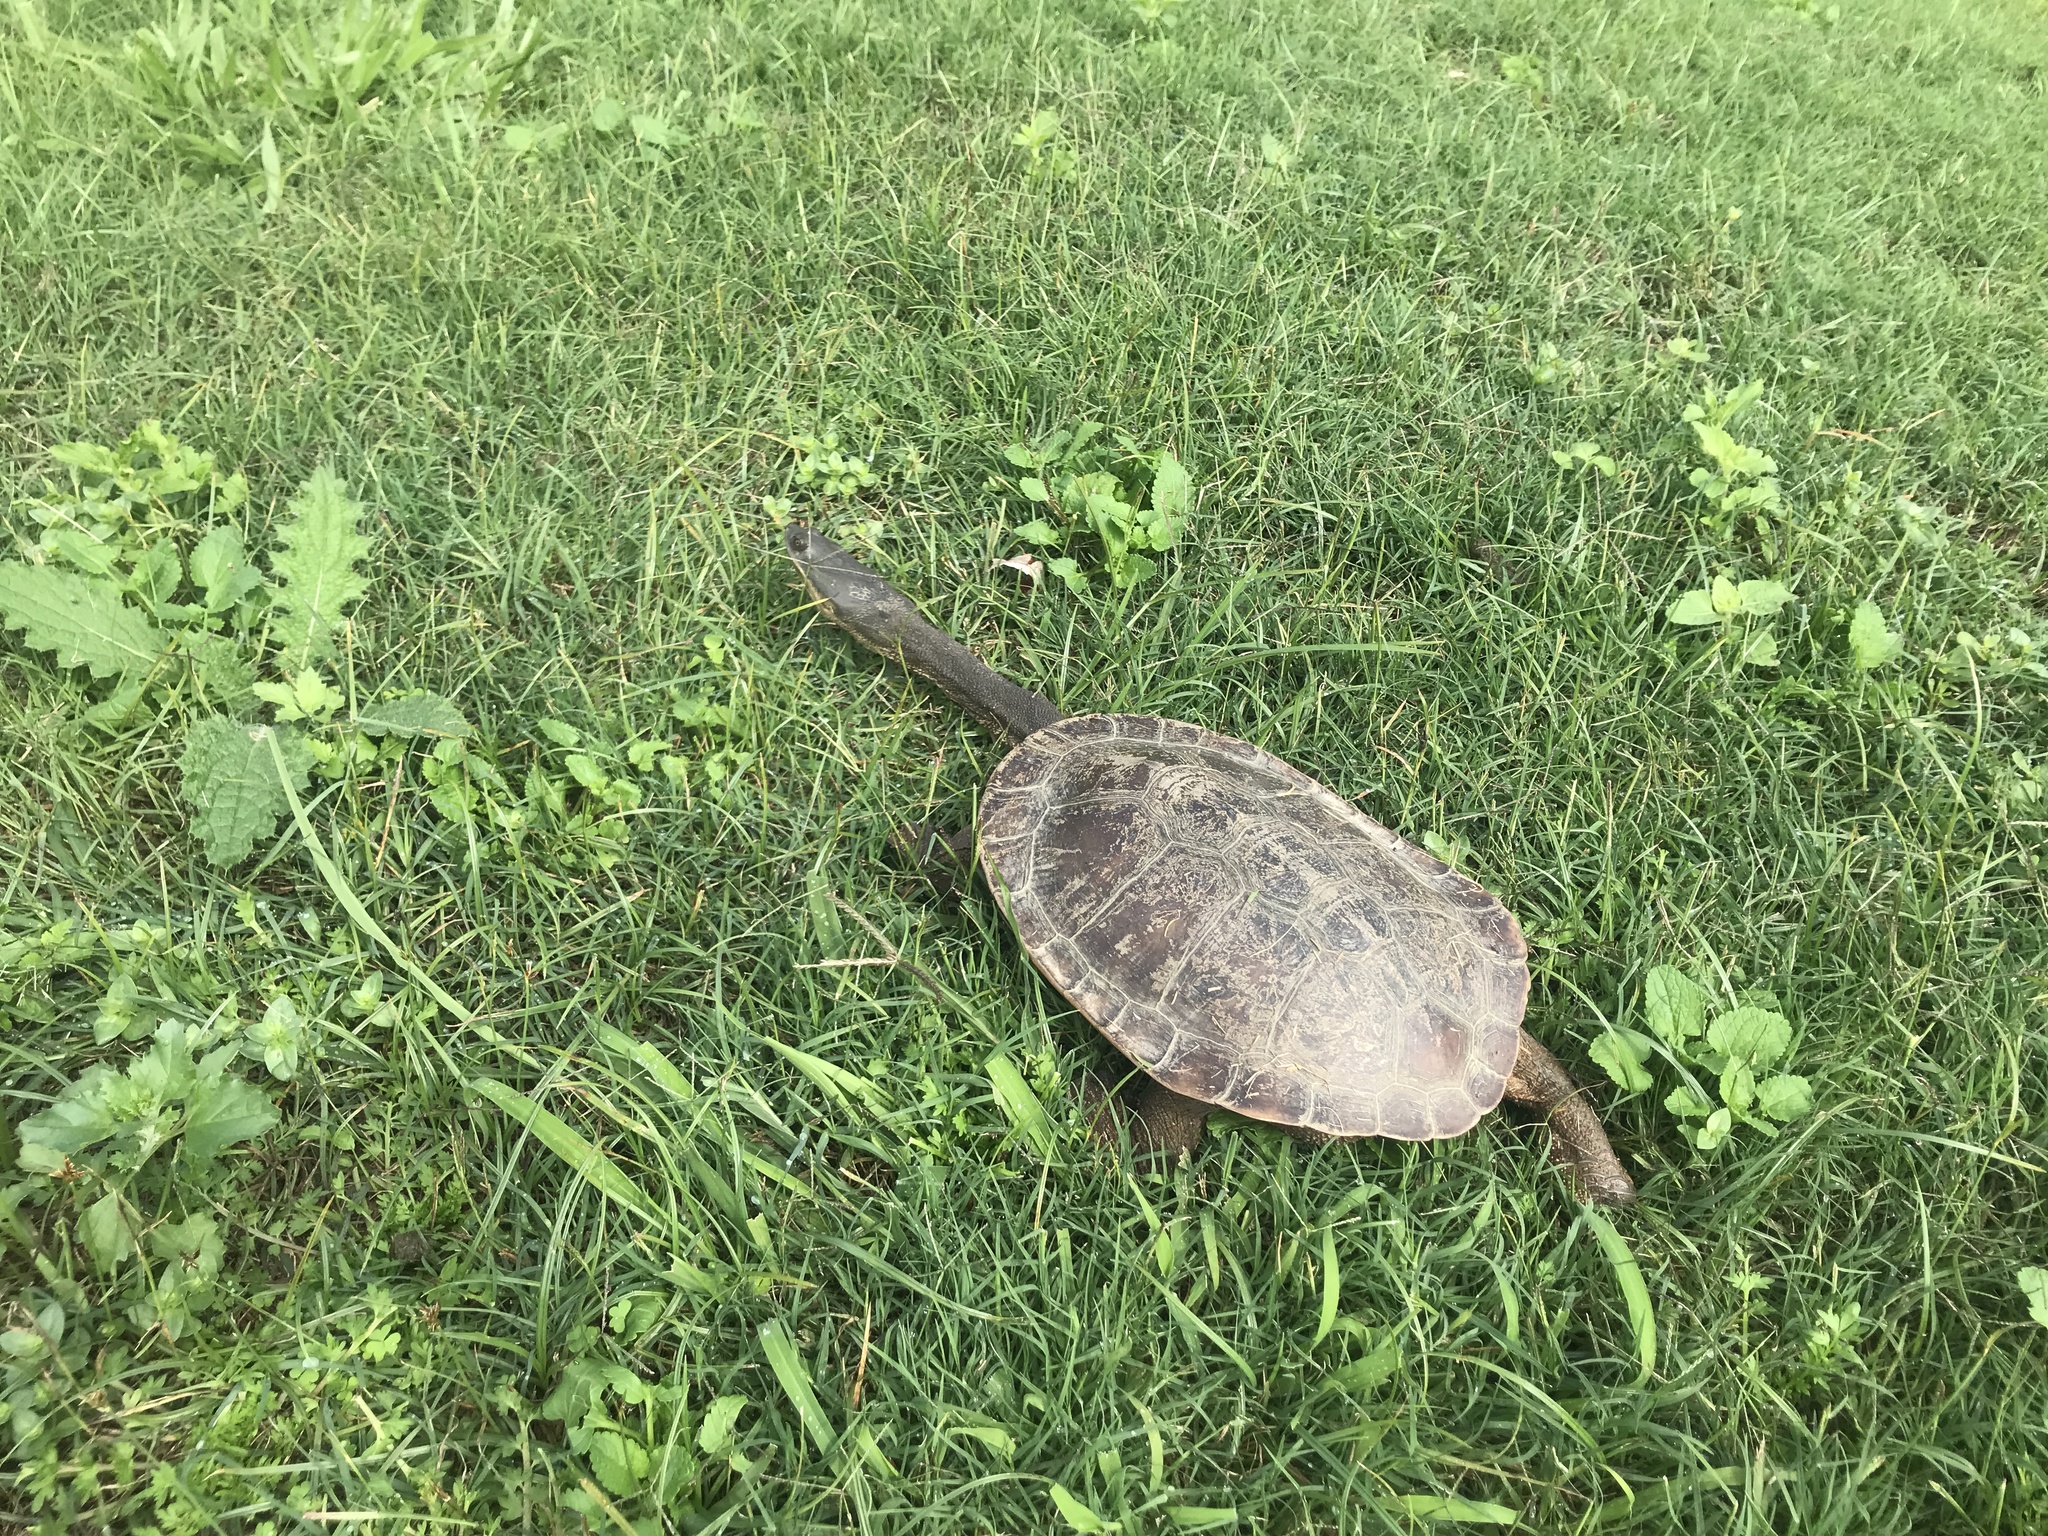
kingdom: Animalia
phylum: Chordata
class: Testudines
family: Chelidae
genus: Chelodina
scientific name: Chelodina expansa
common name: Giant snakeneck turtle
